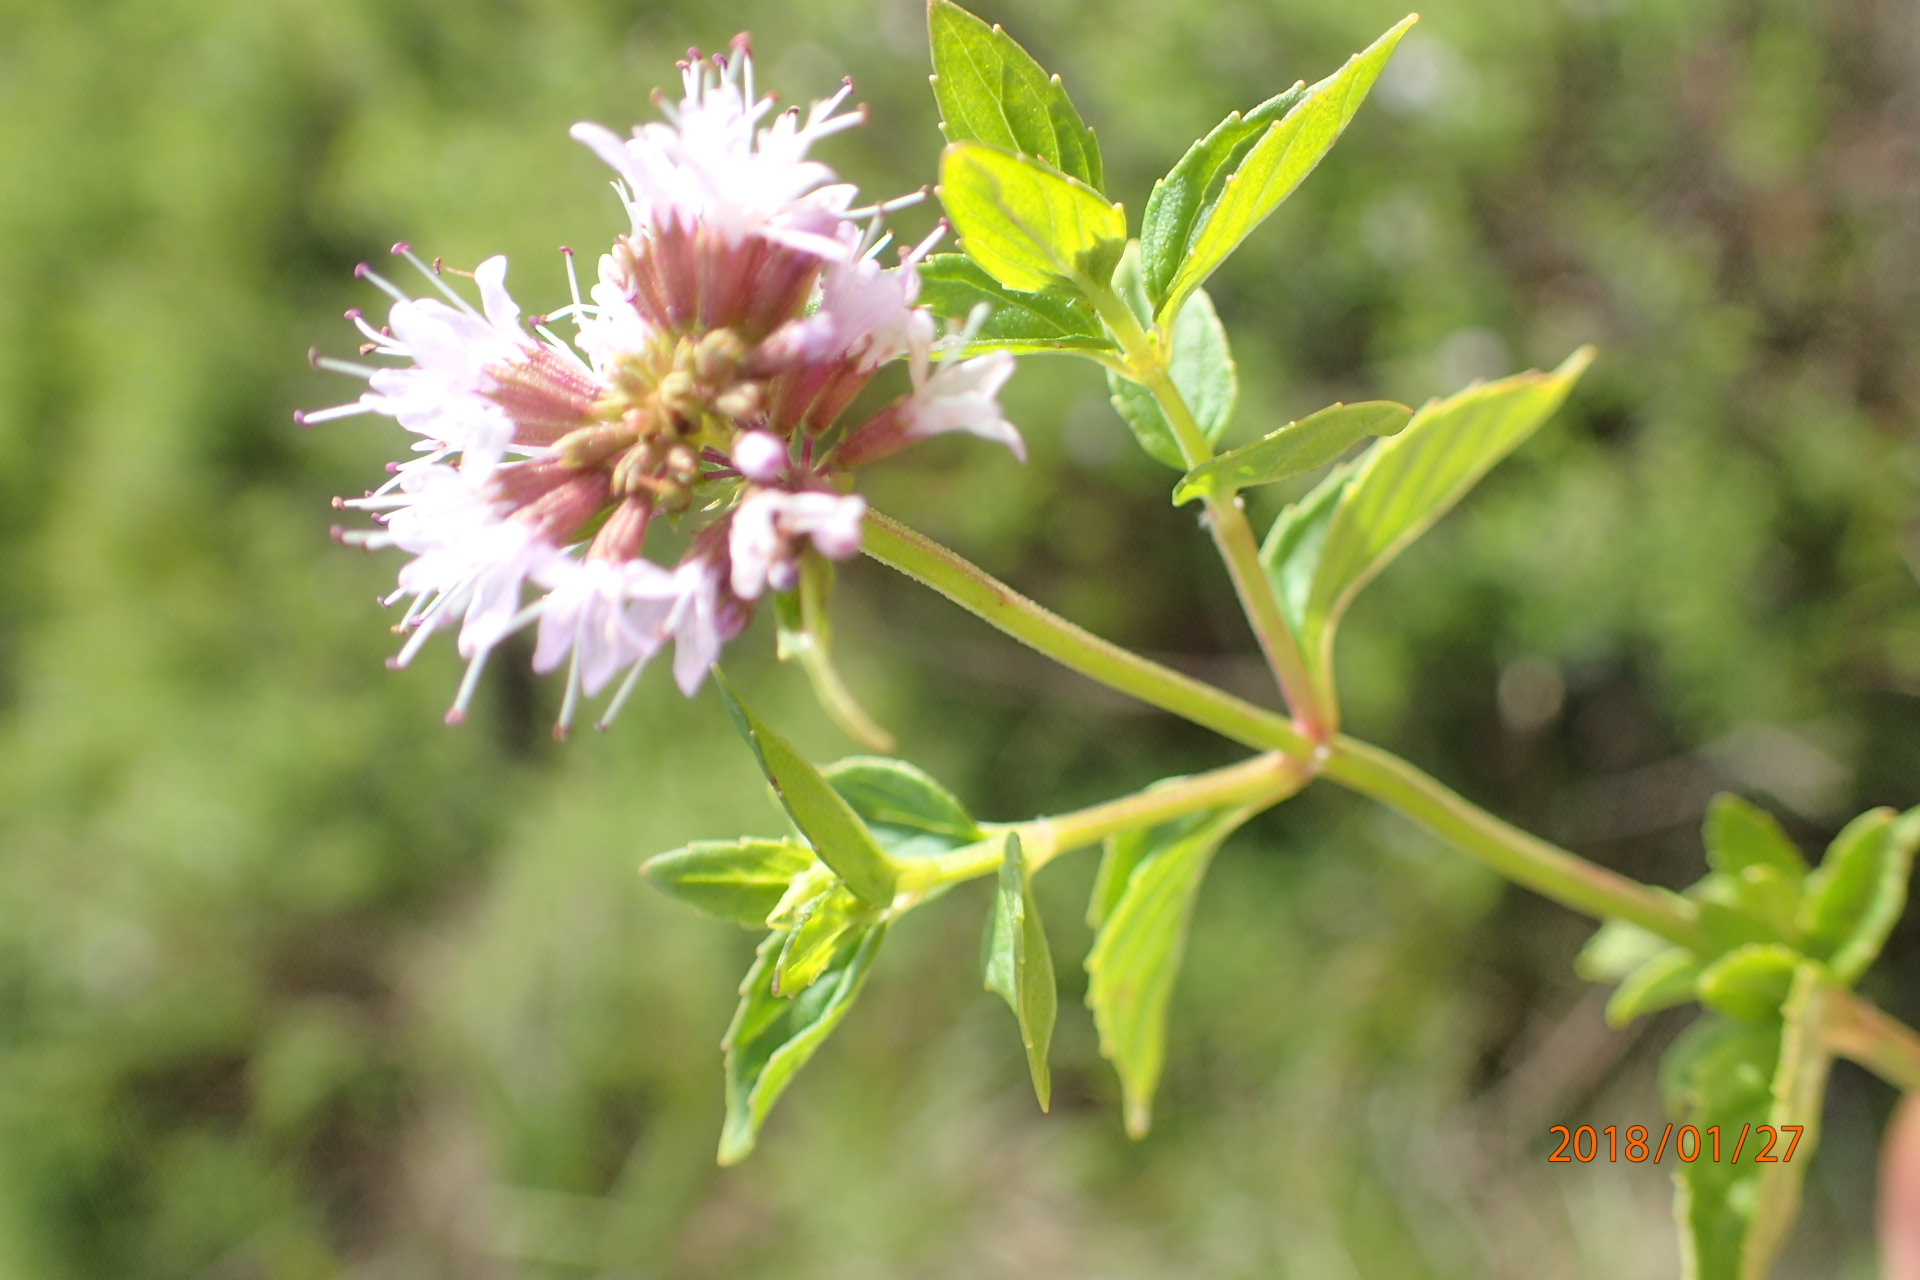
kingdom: Plantae
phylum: Tracheophyta
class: Magnoliopsida
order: Lamiales
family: Lamiaceae
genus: Mentha
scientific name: Mentha aquatica
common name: Water mint
